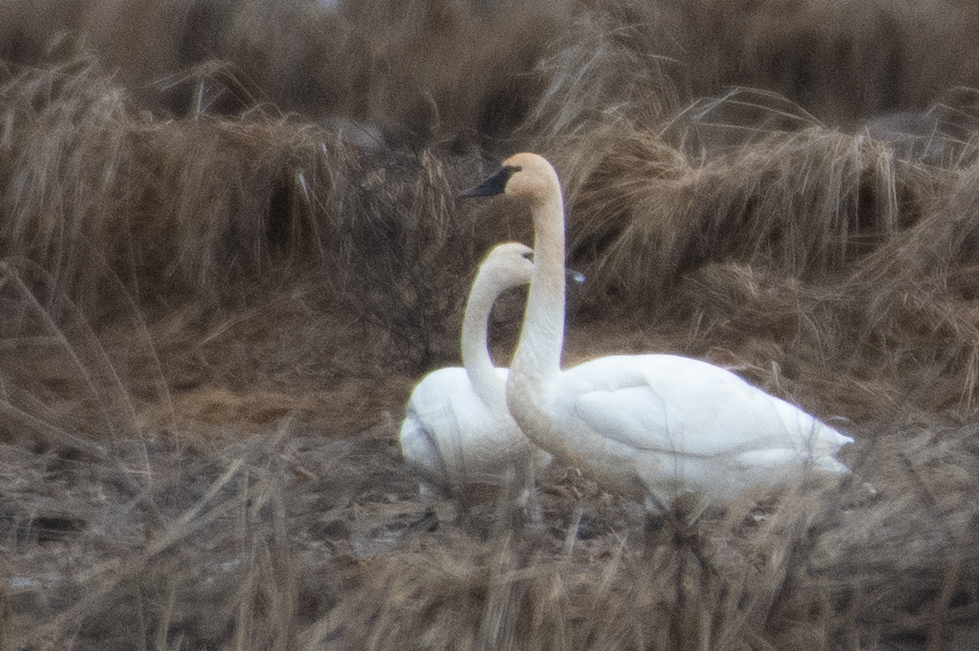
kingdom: Animalia
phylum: Chordata
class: Aves
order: Anseriformes
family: Anatidae
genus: Cygnus
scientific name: Cygnus columbianus
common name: Tundra swan
